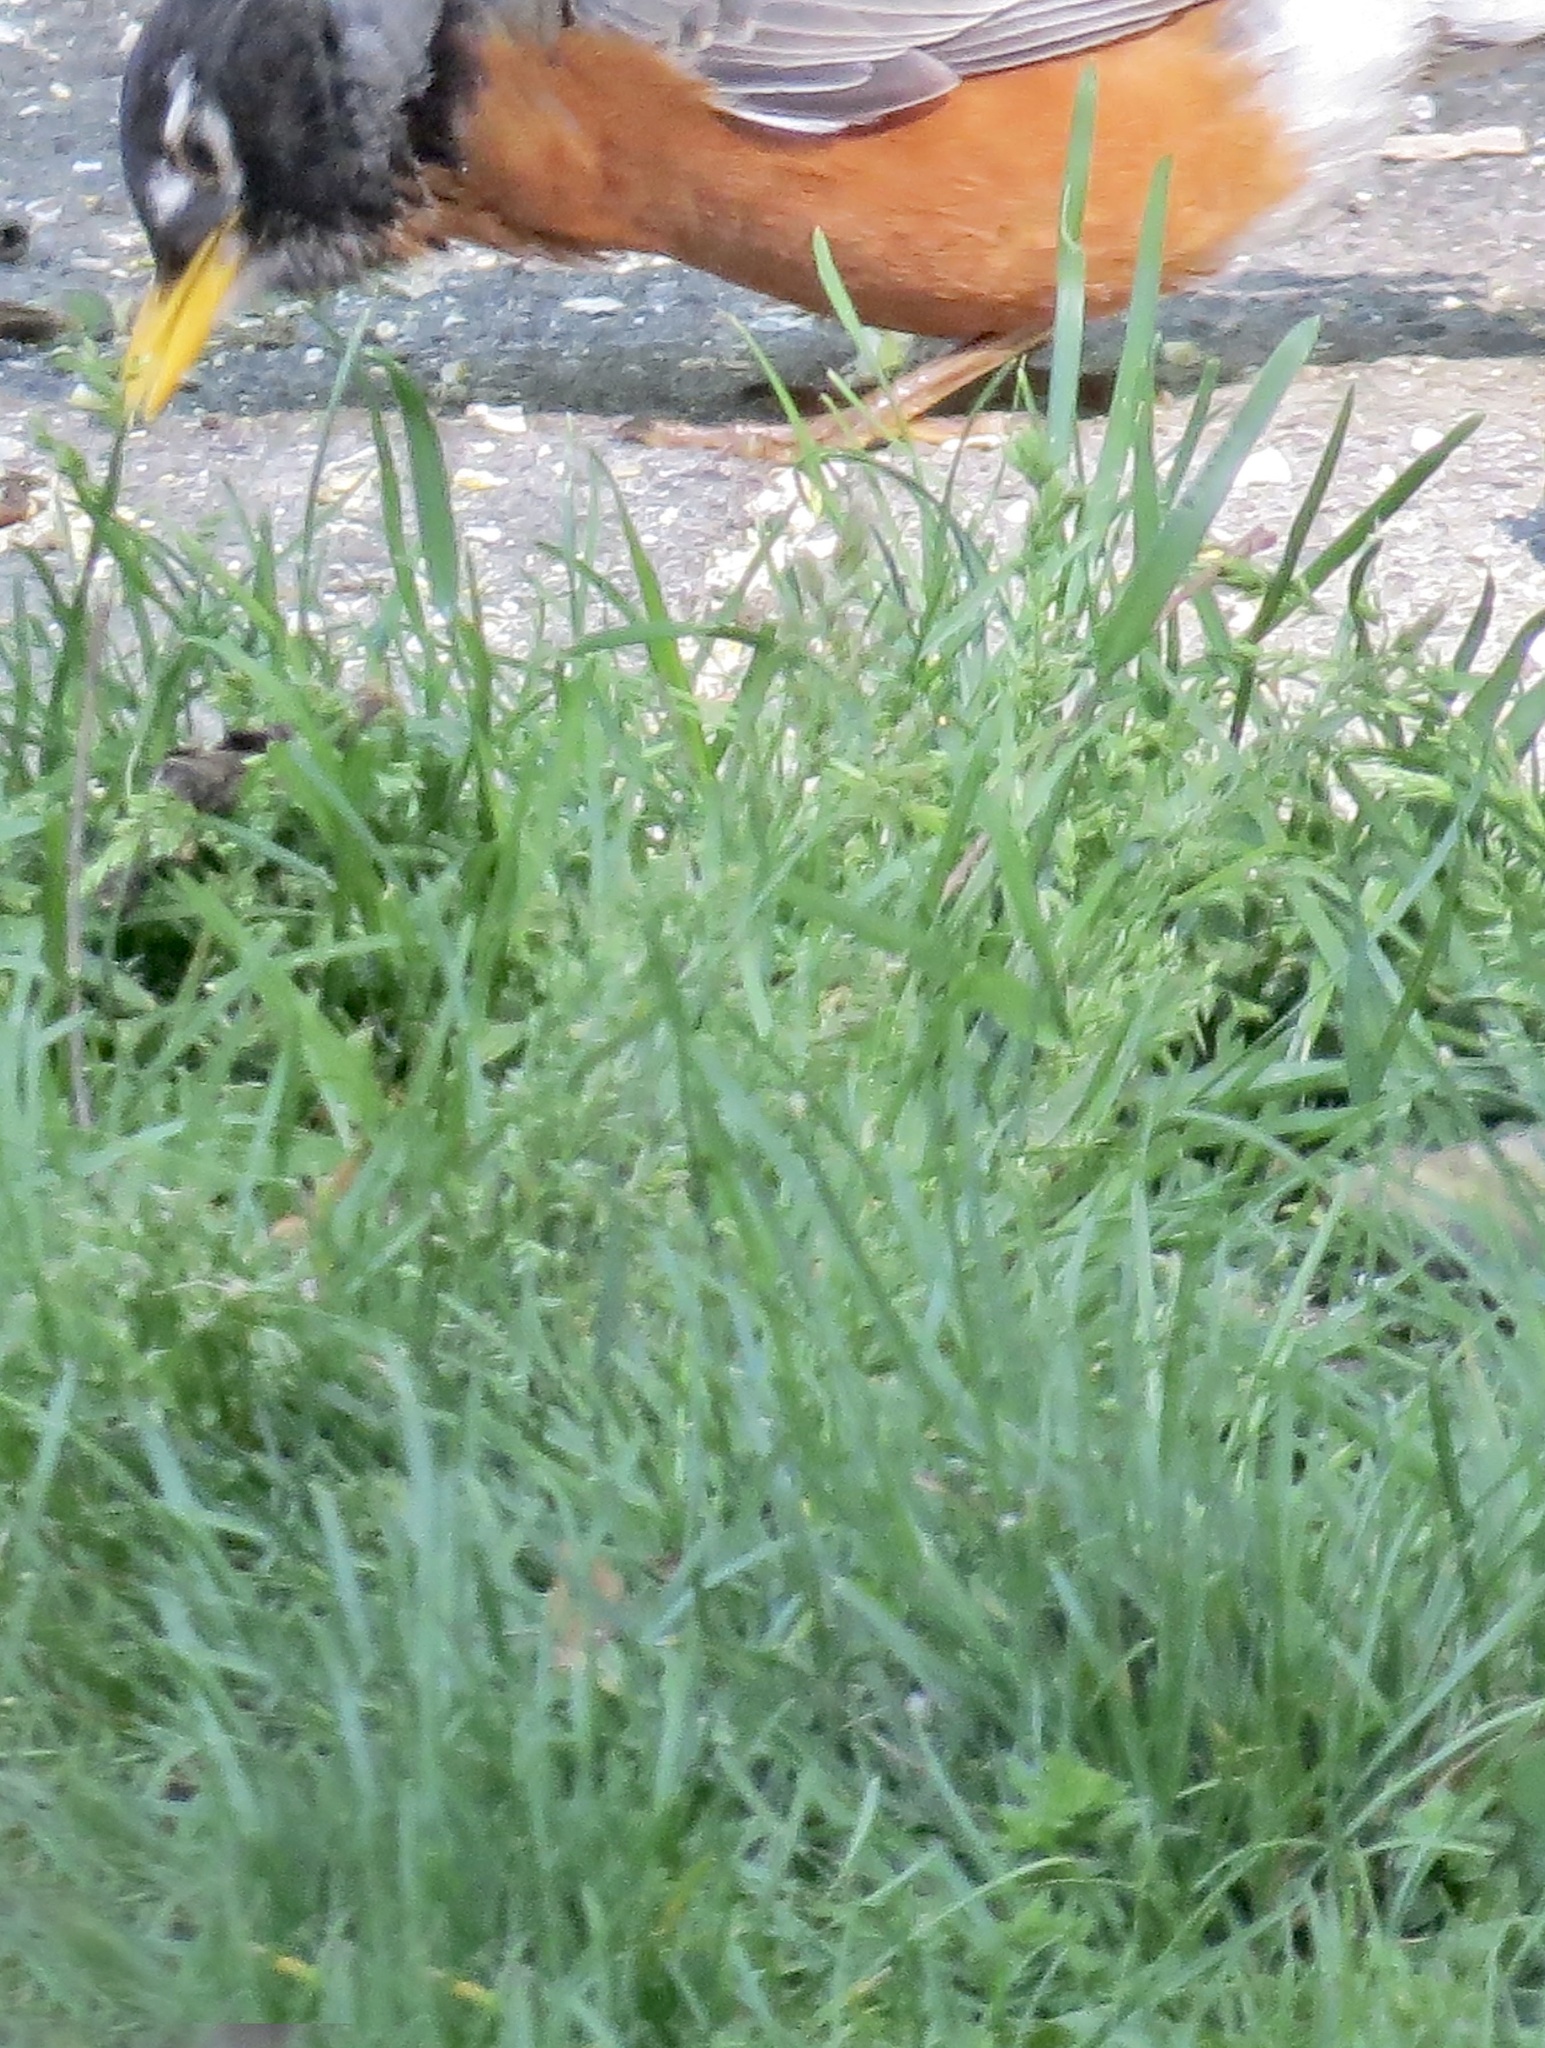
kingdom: Animalia
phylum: Chordata
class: Aves
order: Passeriformes
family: Turdidae
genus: Turdus
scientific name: Turdus migratorius
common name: American robin
